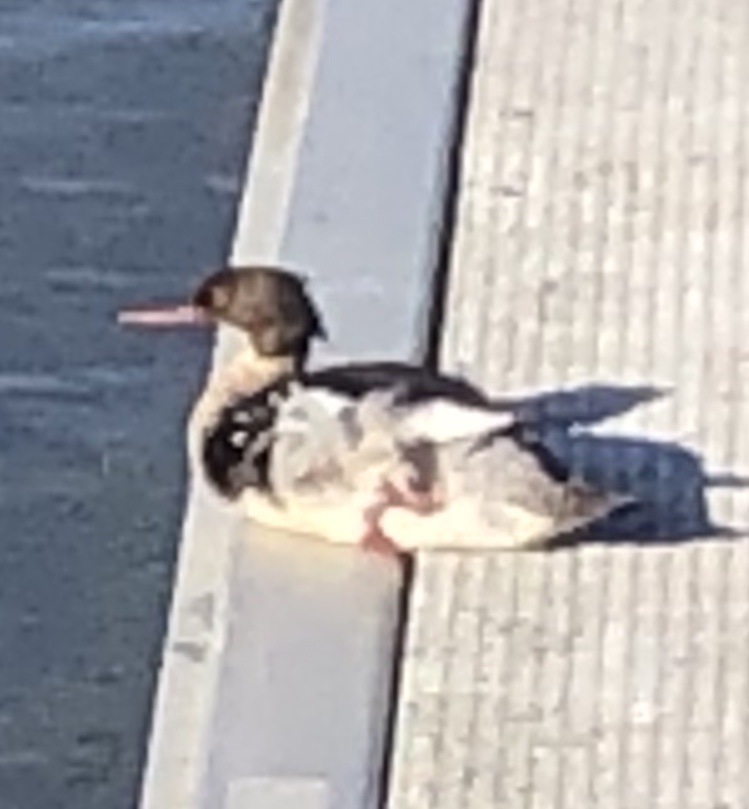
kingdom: Animalia
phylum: Chordata
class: Aves
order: Anseriformes
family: Anatidae
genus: Mergus
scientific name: Mergus merganser
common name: Common merganser
